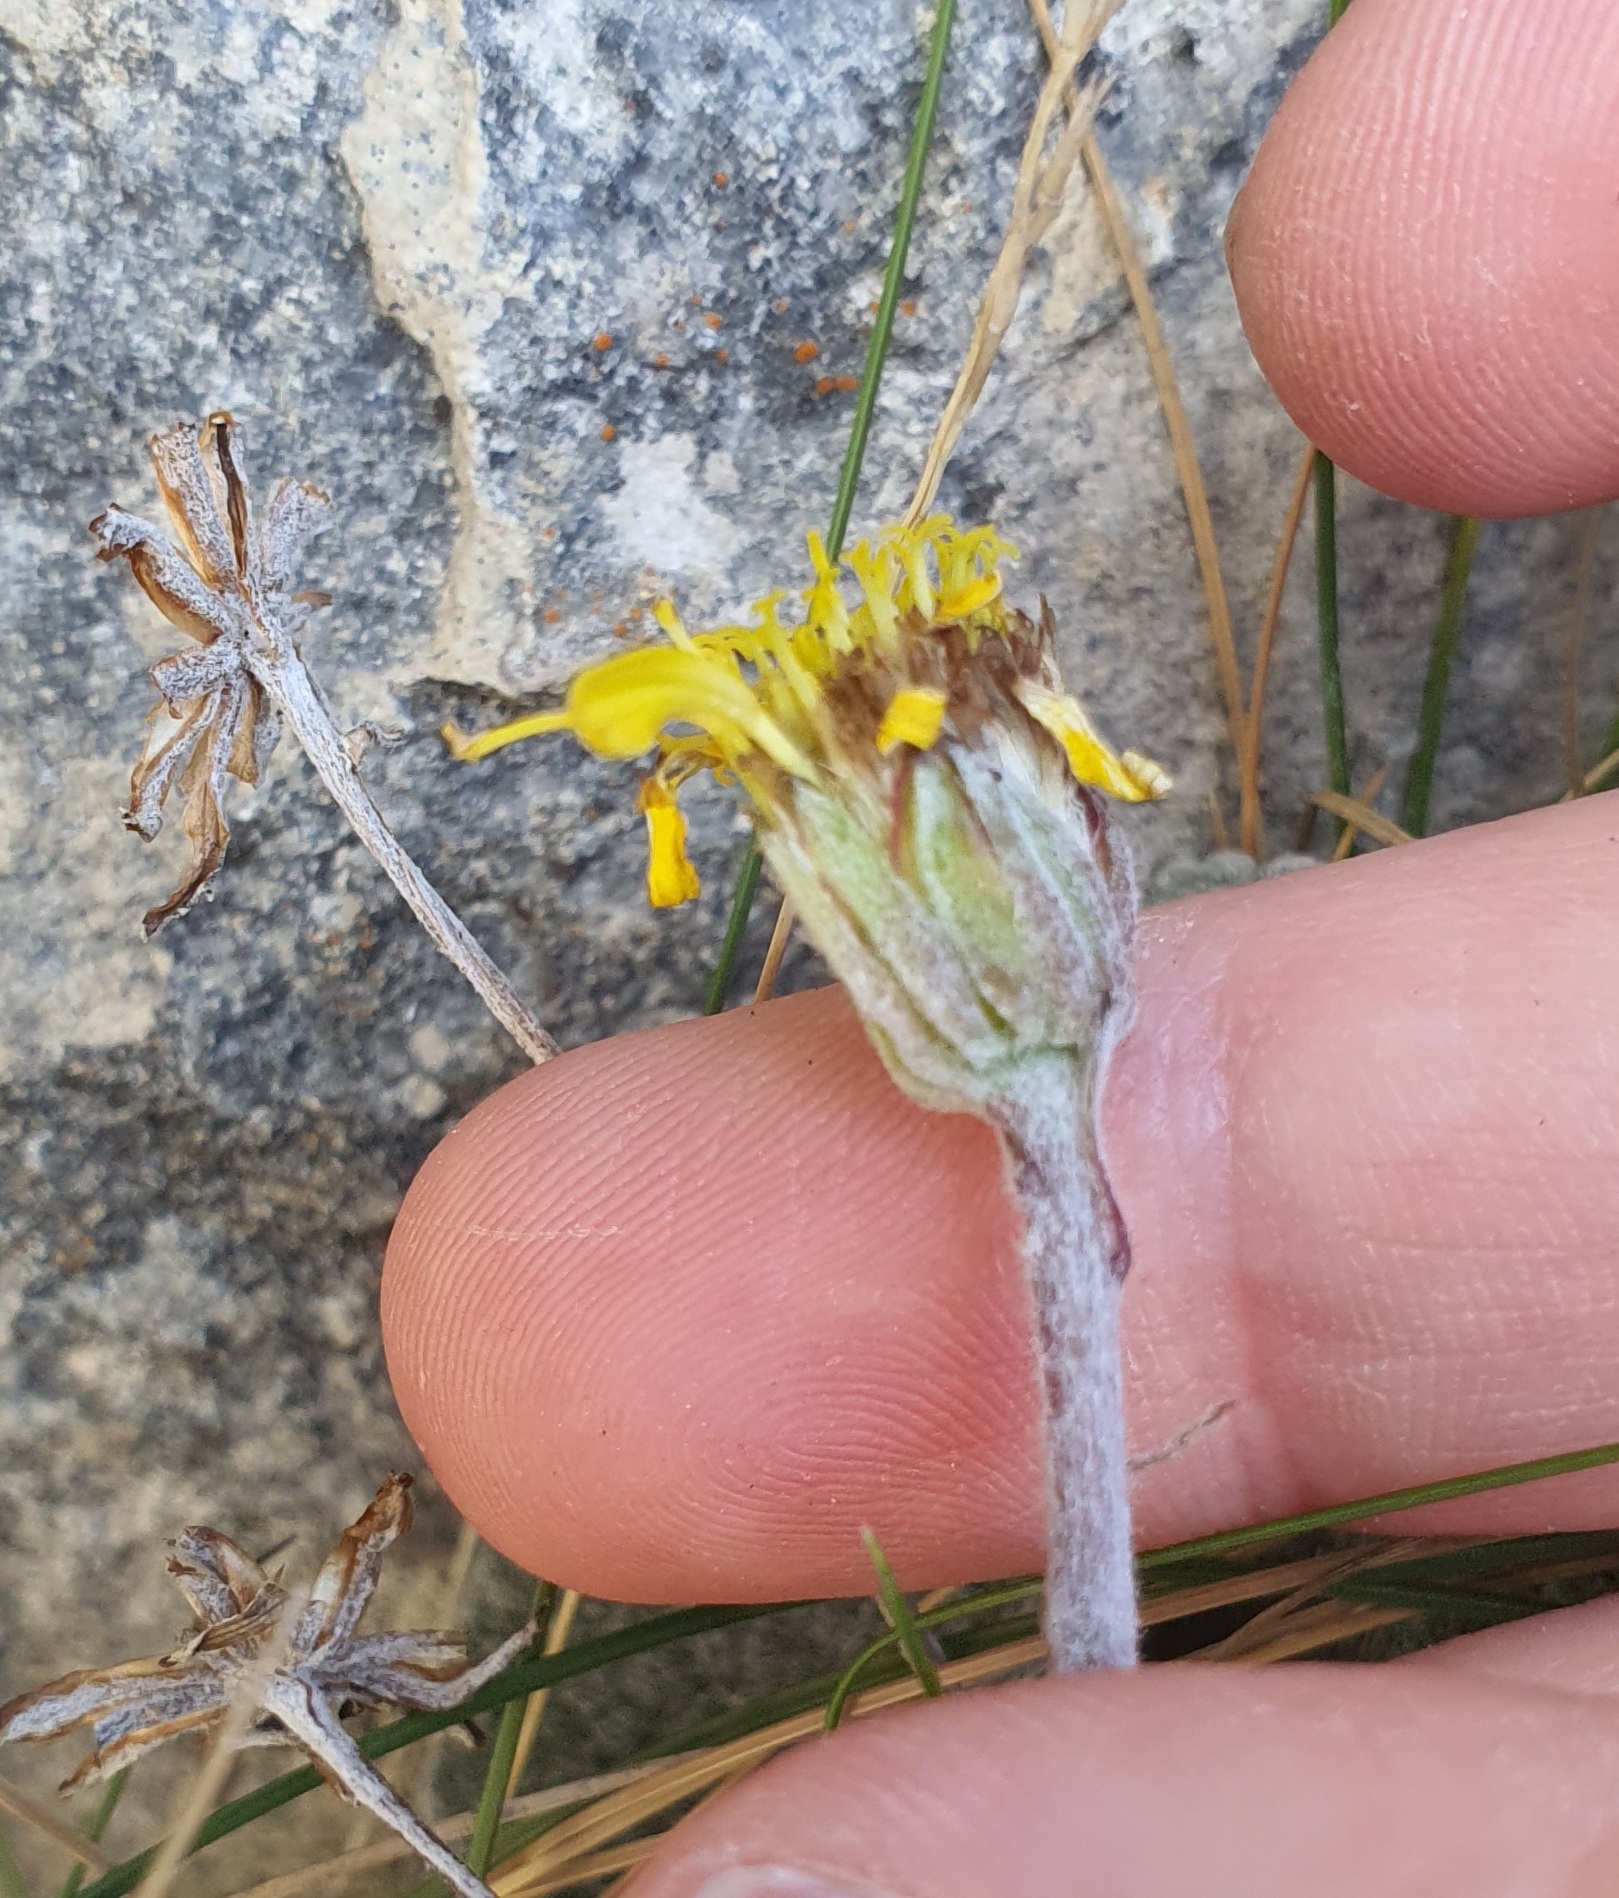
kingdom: Plantae
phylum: Tracheophyta
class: Magnoliopsida
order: Asterales
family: Asteraceae
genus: Brachyglottis
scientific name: Brachyglottis lagopus
